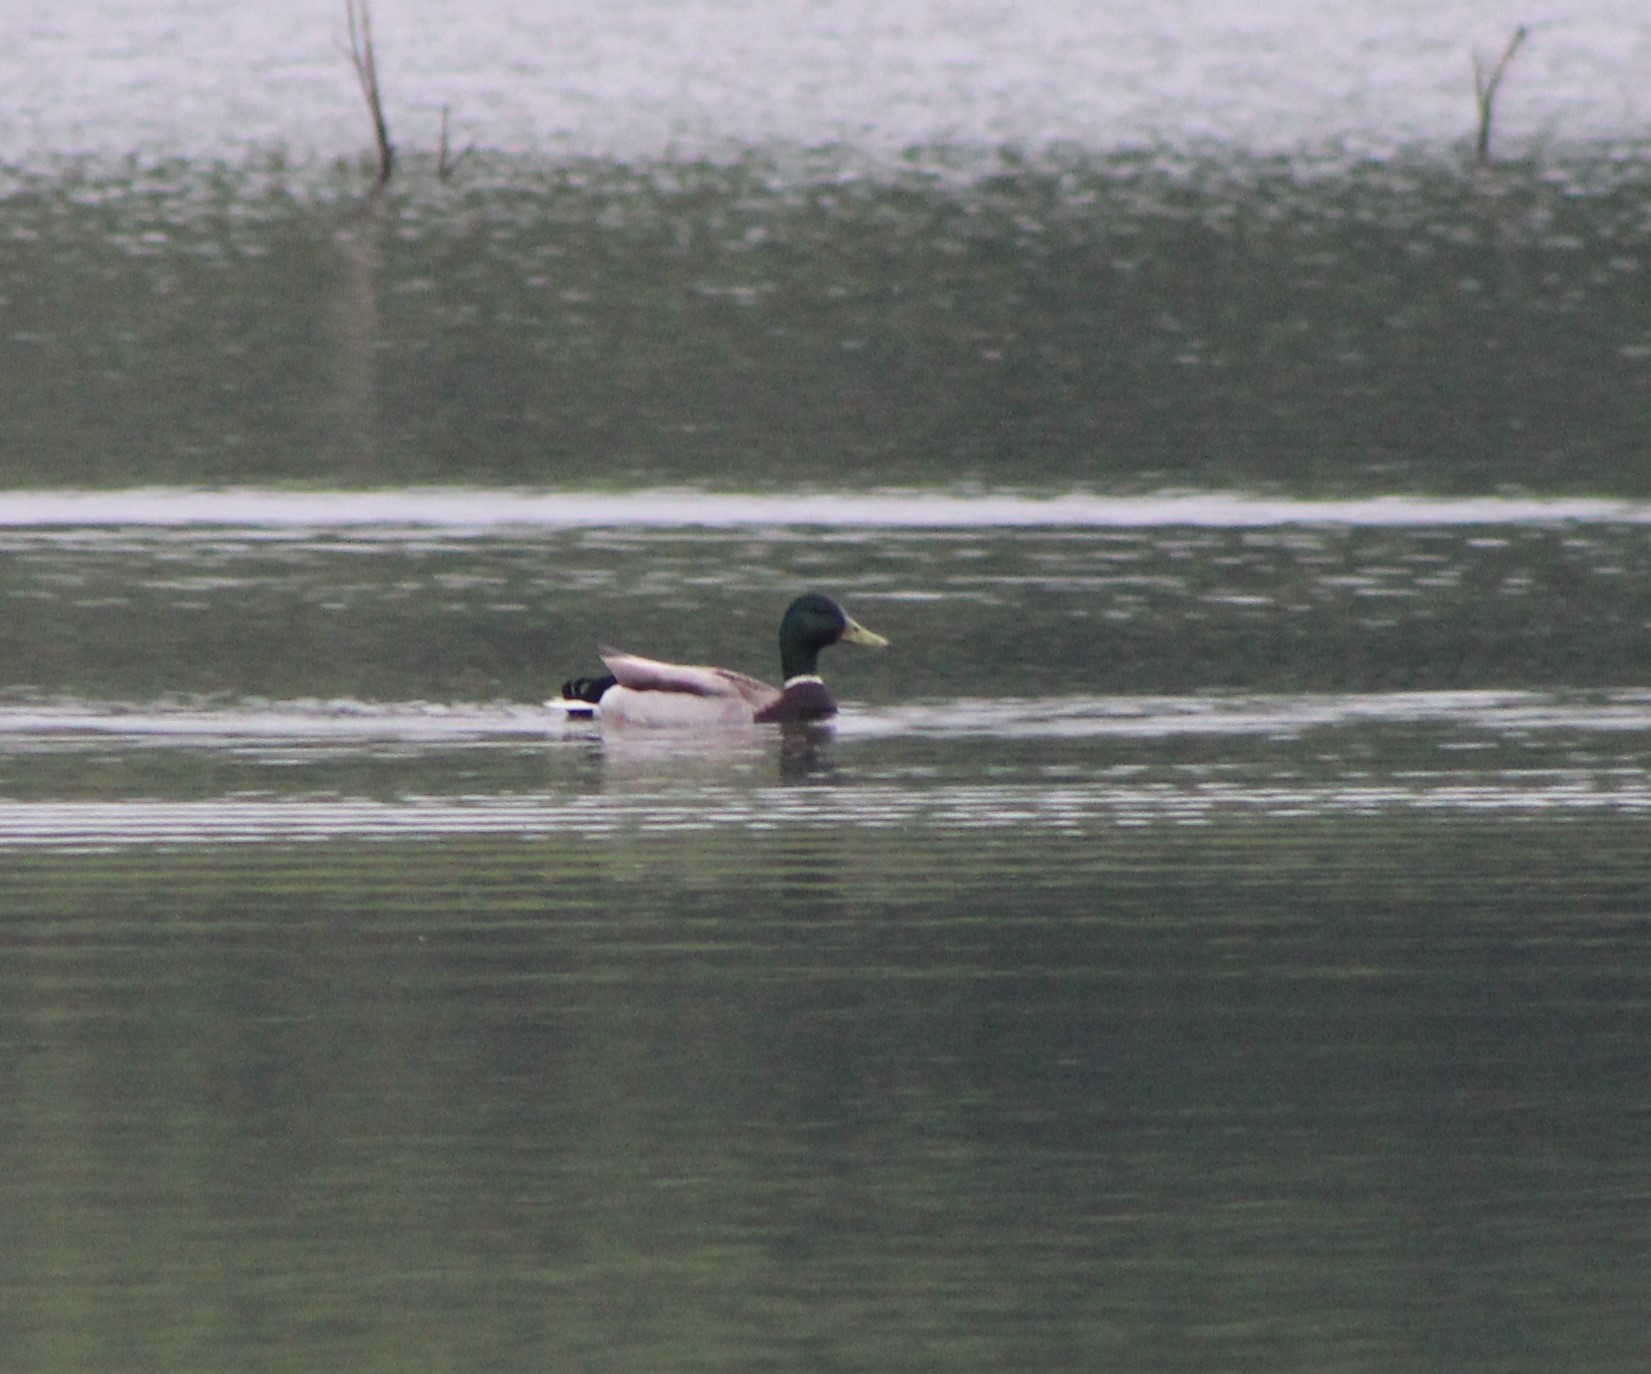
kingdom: Animalia
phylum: Chordata
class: Aves
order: Anseriformes
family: Anatidae
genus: Anas
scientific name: Anas platyrhynchos
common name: Mallard
